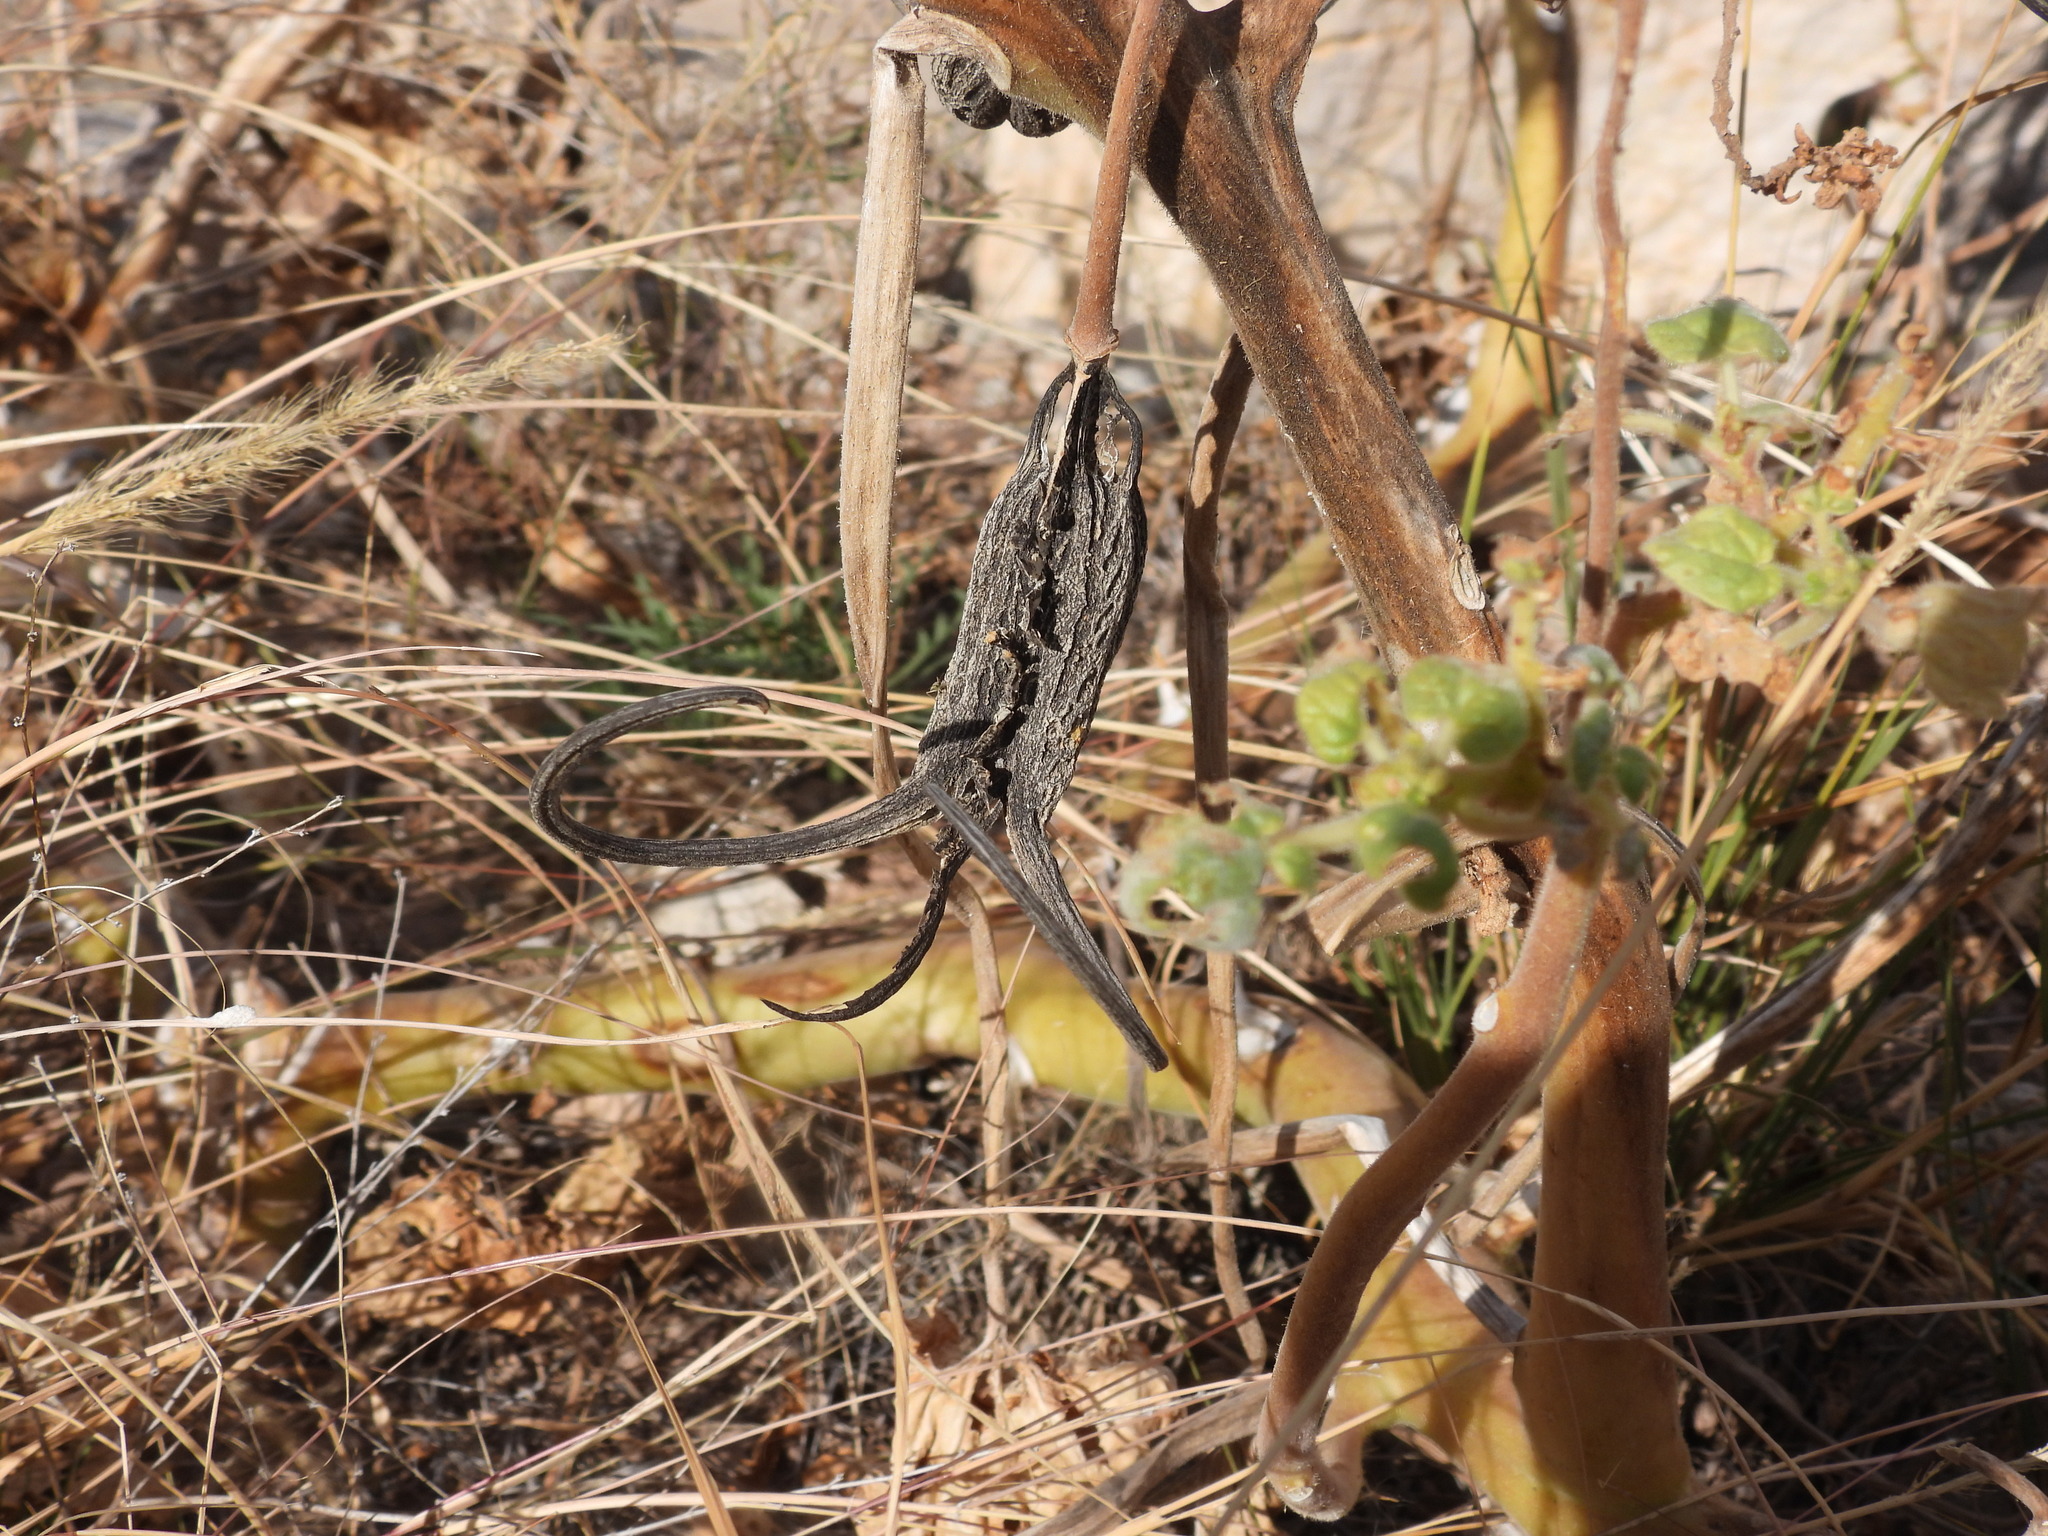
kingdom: Plantae
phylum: Tracheophyta
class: Magnoliopsida
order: Lamiales
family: Martyniaceae
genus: Proboscidea
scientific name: Proboscidea louisianica
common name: Elephant tusks
